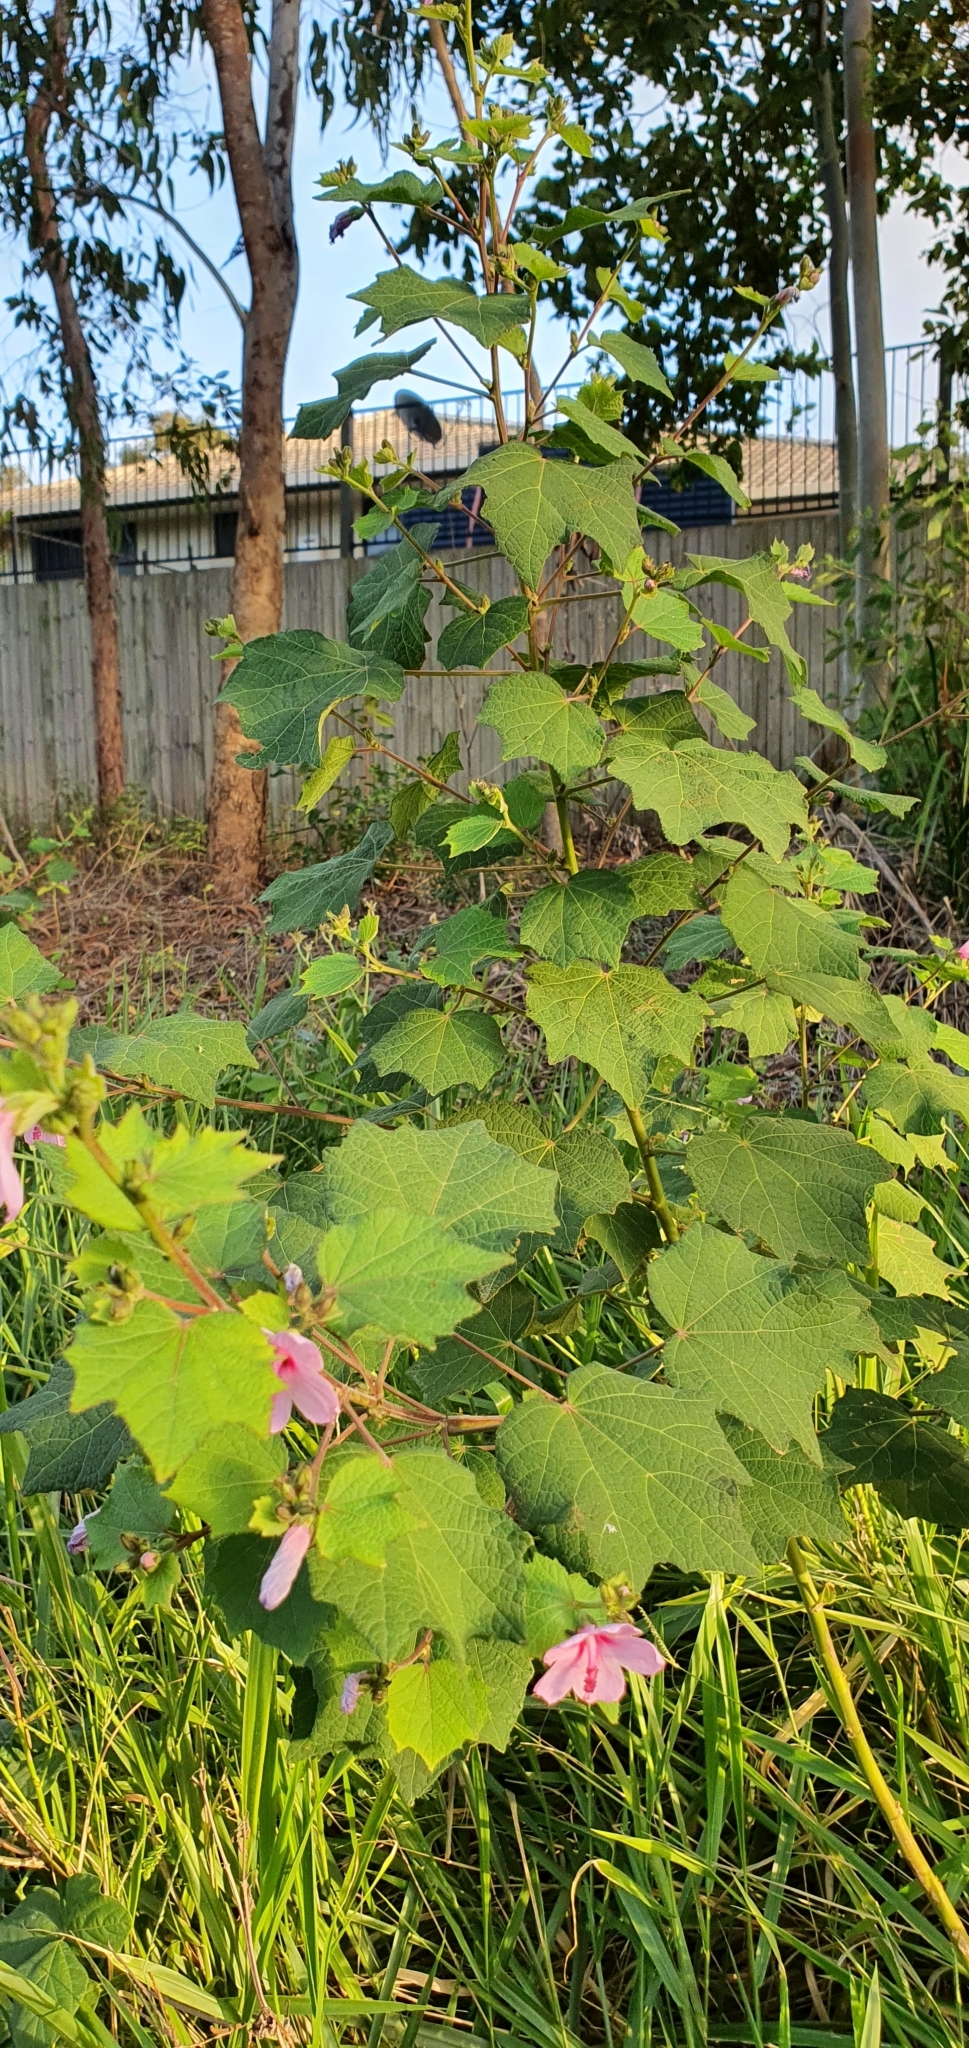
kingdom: Plantae
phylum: Tracheophyta
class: Magnoliopsida
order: Malvales
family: Malvaceae
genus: Urena
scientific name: Urena lobata
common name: Caesarweed
